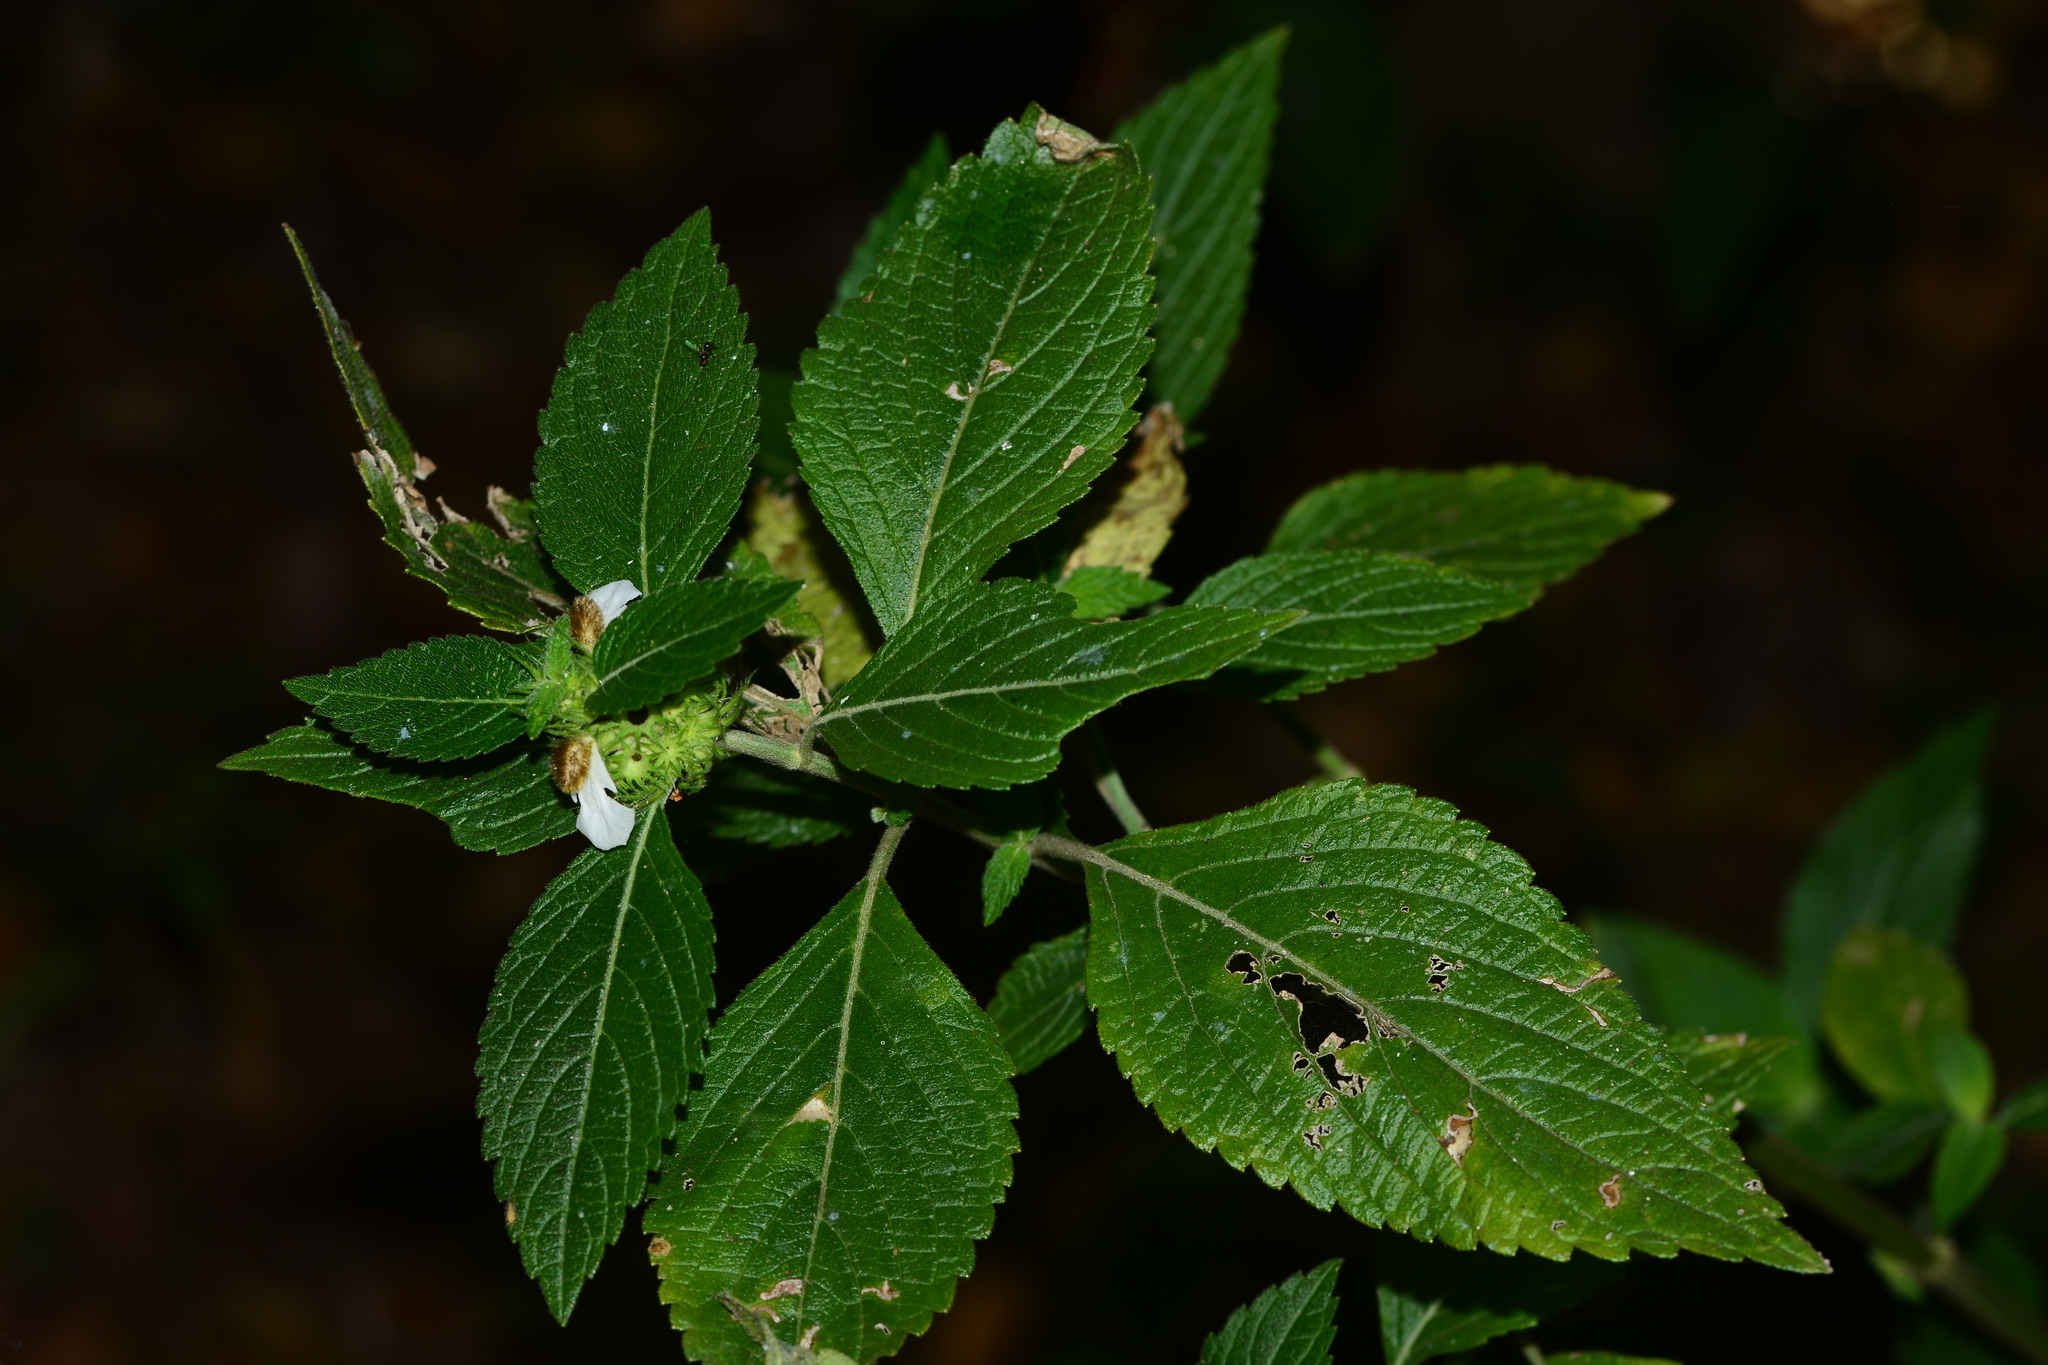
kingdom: Plantae
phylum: Tracheophyta
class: Magnoliopsida
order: Lamiales
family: Lamiaceae
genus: Leucas
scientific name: Leucas ciliata
